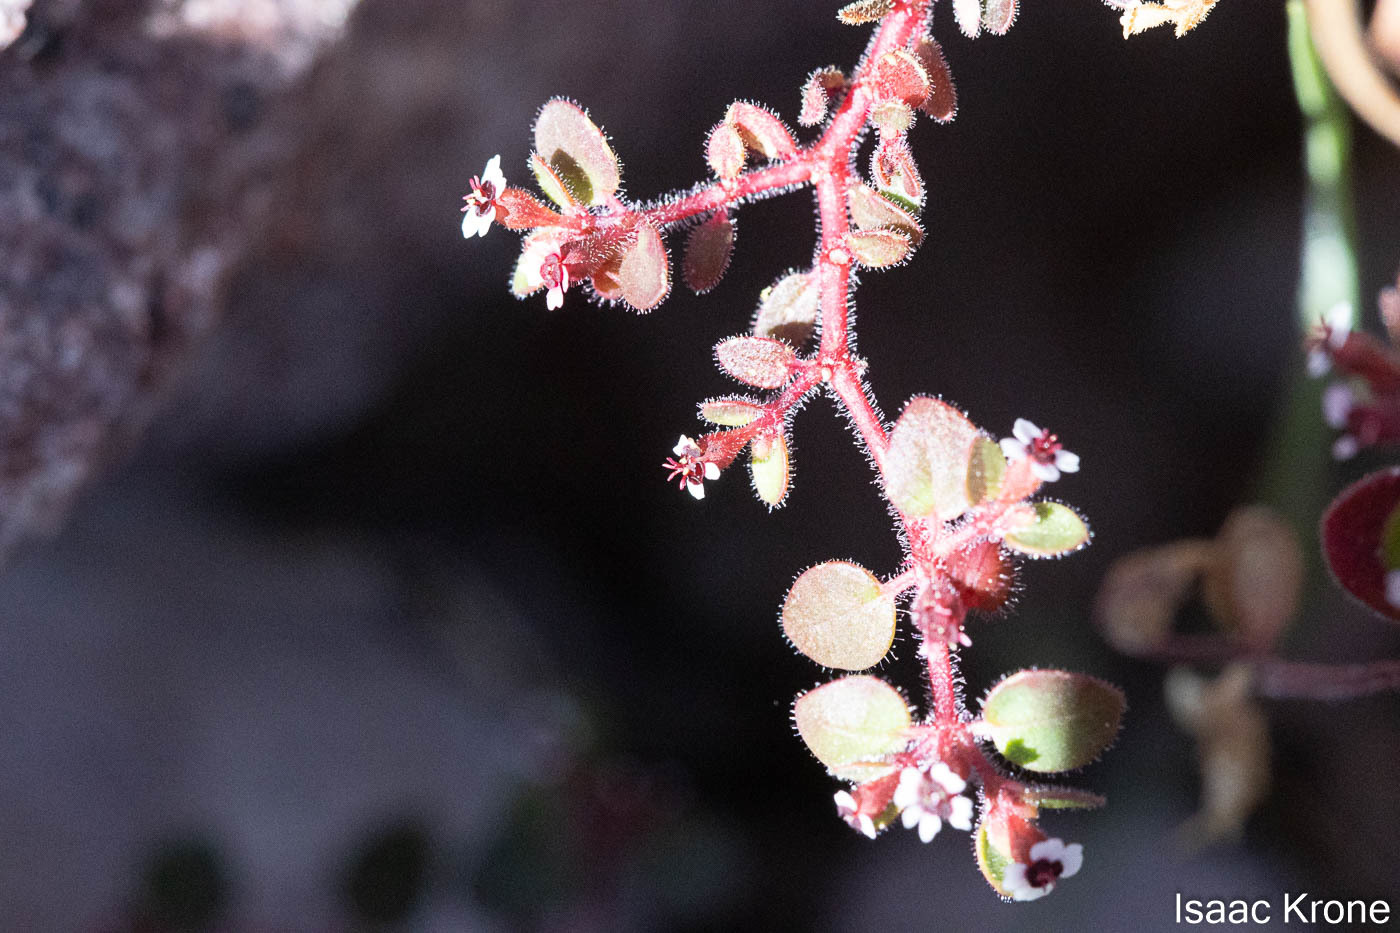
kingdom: Plantae
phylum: Tracheophyta
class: Magnoliopsida
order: Malpighiales
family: Euphorbiaceae
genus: Euphorbia
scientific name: Euphorbia arizonica
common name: Arizona spurge
